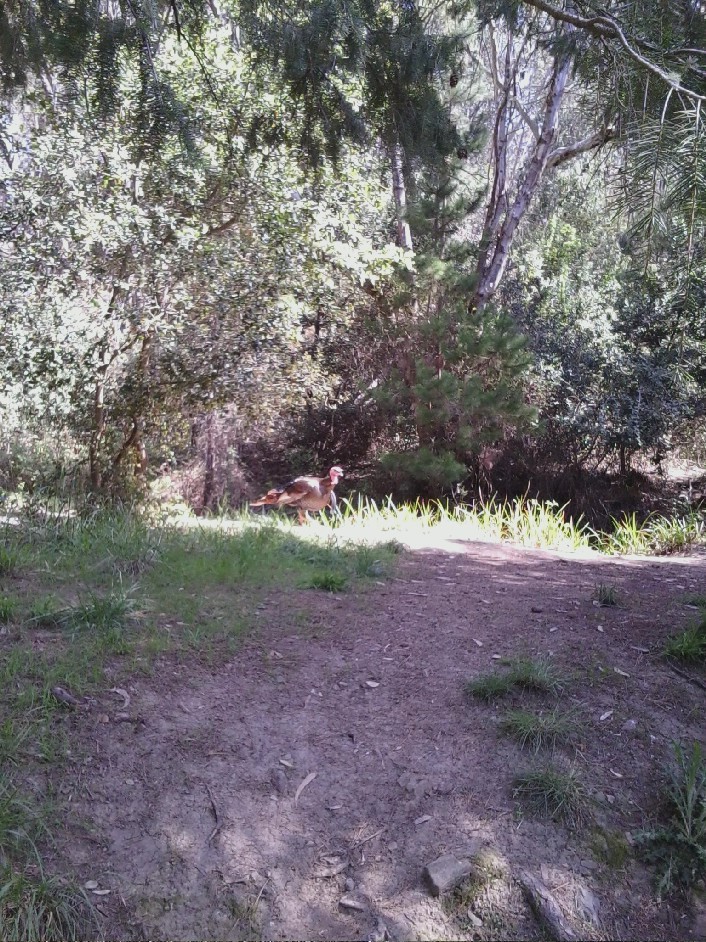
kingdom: Animalia
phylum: Chordata
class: Aves
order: Galliformes
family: Phasianidae
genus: Meleagris
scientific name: Meleagris gallopavo
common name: Wild turkey
